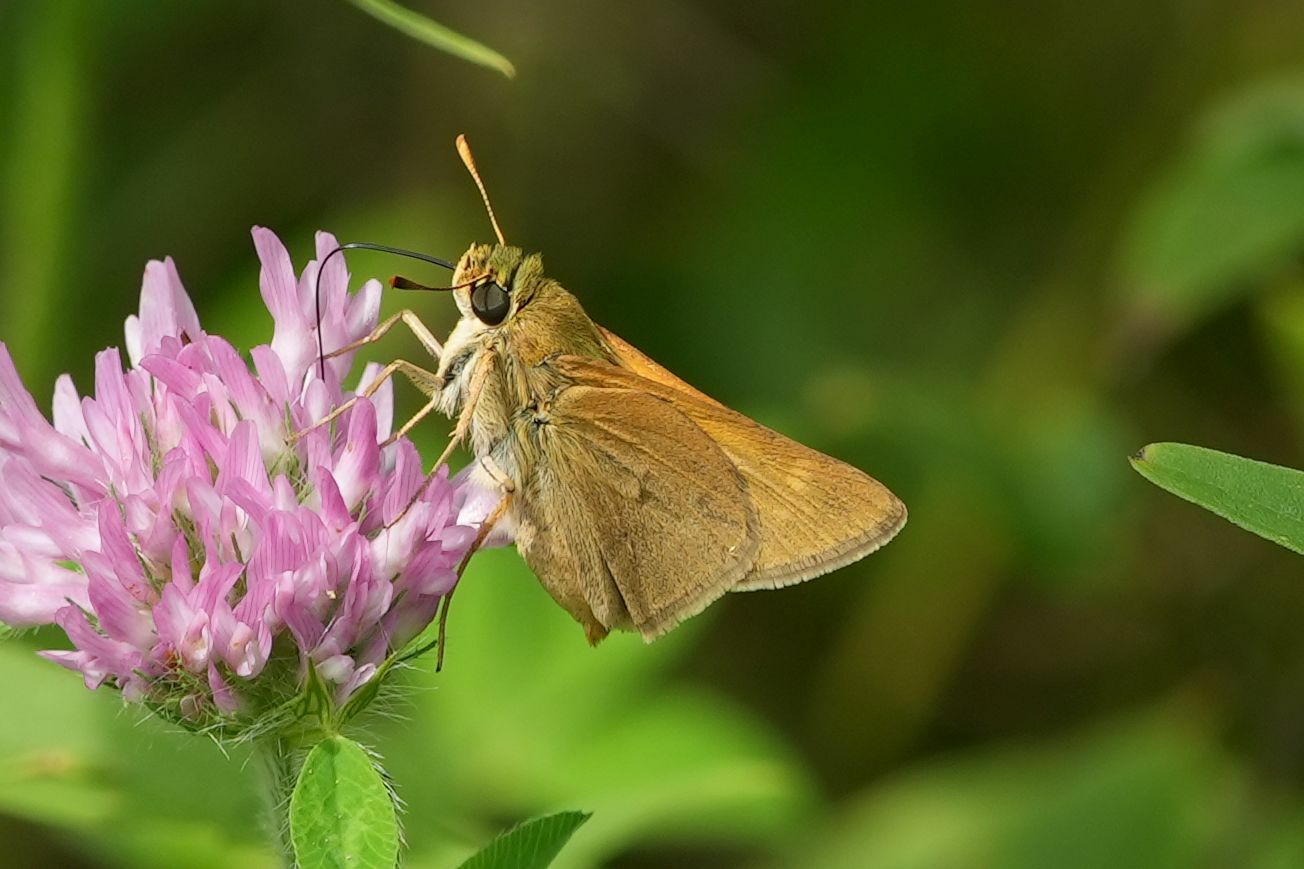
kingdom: Animalia
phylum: Arthropoda
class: Insecta
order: Lepidoptera
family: Hesperiidae
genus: Polites
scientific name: Polites origenes
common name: Crossline skipper
